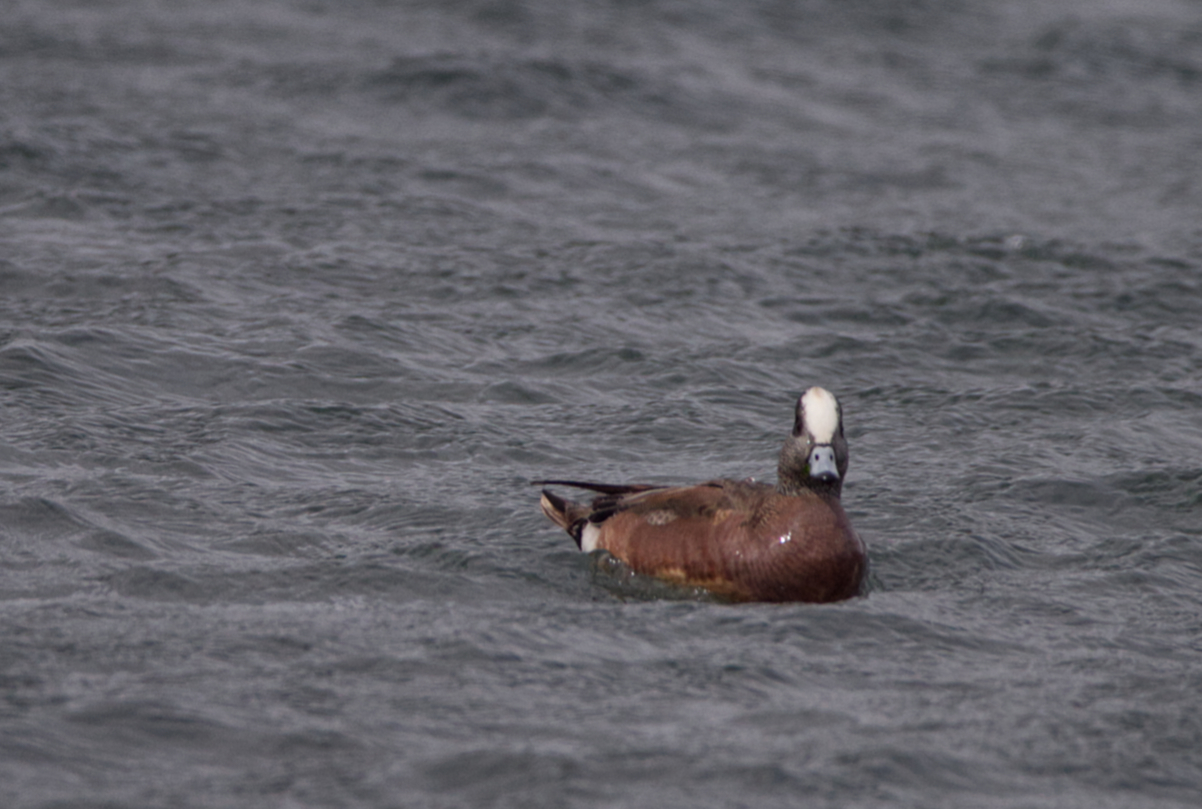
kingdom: Animalia
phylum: Chordata
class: Aves
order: Anseriformes
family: Anatidae
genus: Mareca
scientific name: Mareca americana
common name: American wigeon
